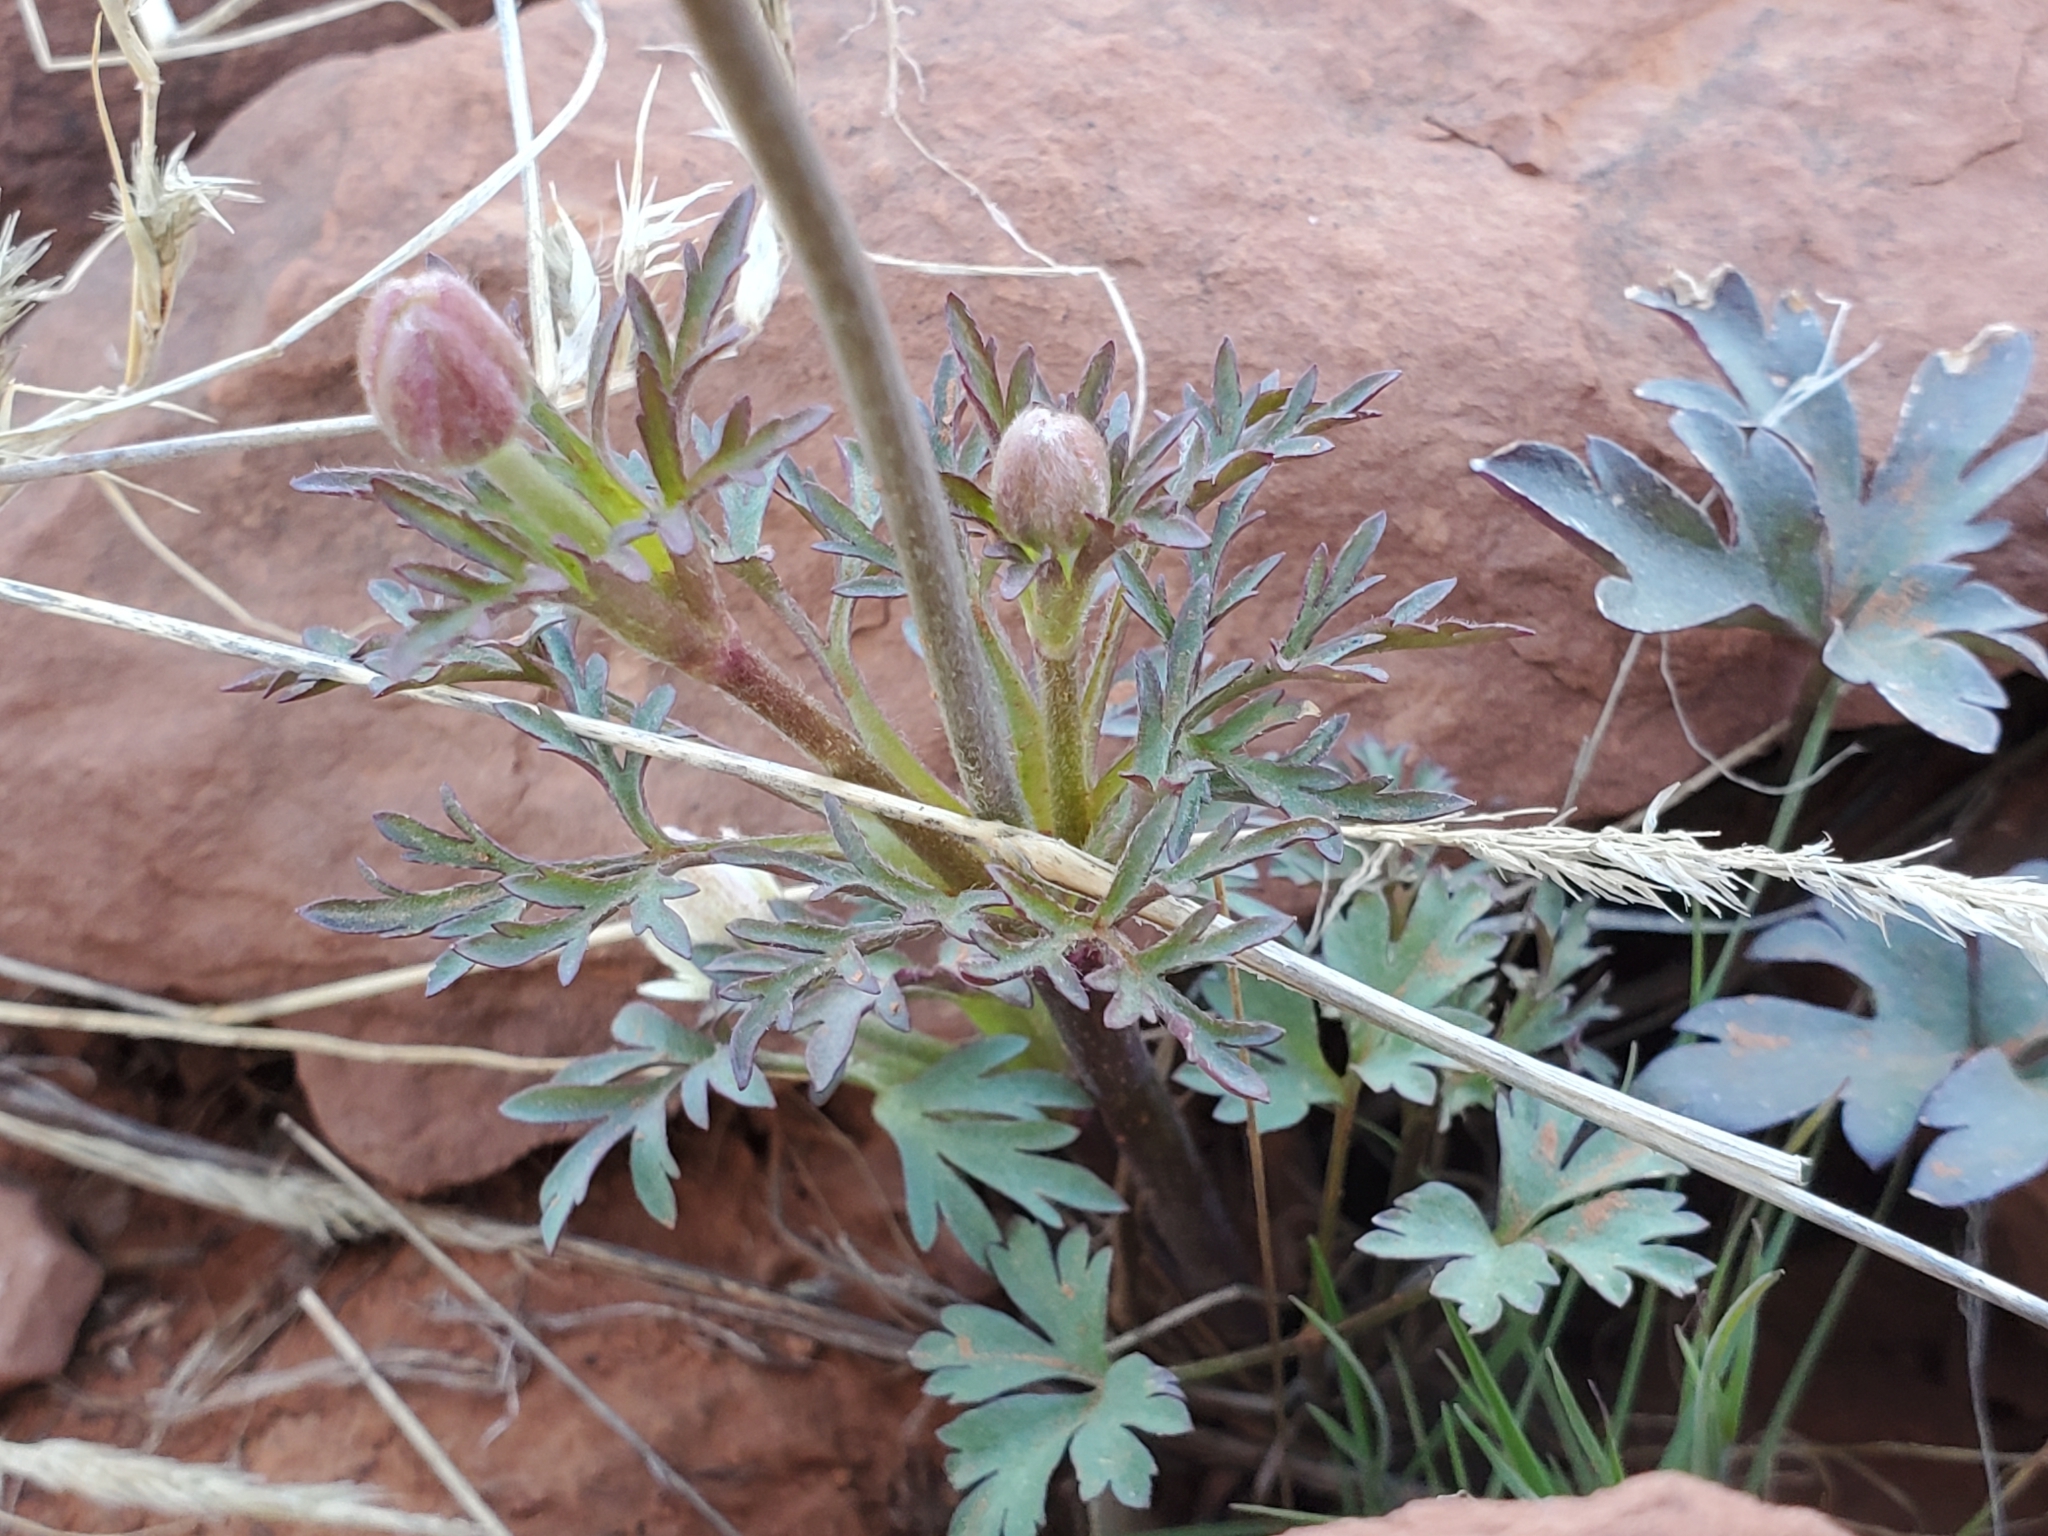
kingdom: Plantae
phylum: Tracheophyta
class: Magnoliopsida
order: Ranunculales
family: Ranunculaceae
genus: Anemone
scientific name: Anemone tuberosa
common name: Desert anemone
